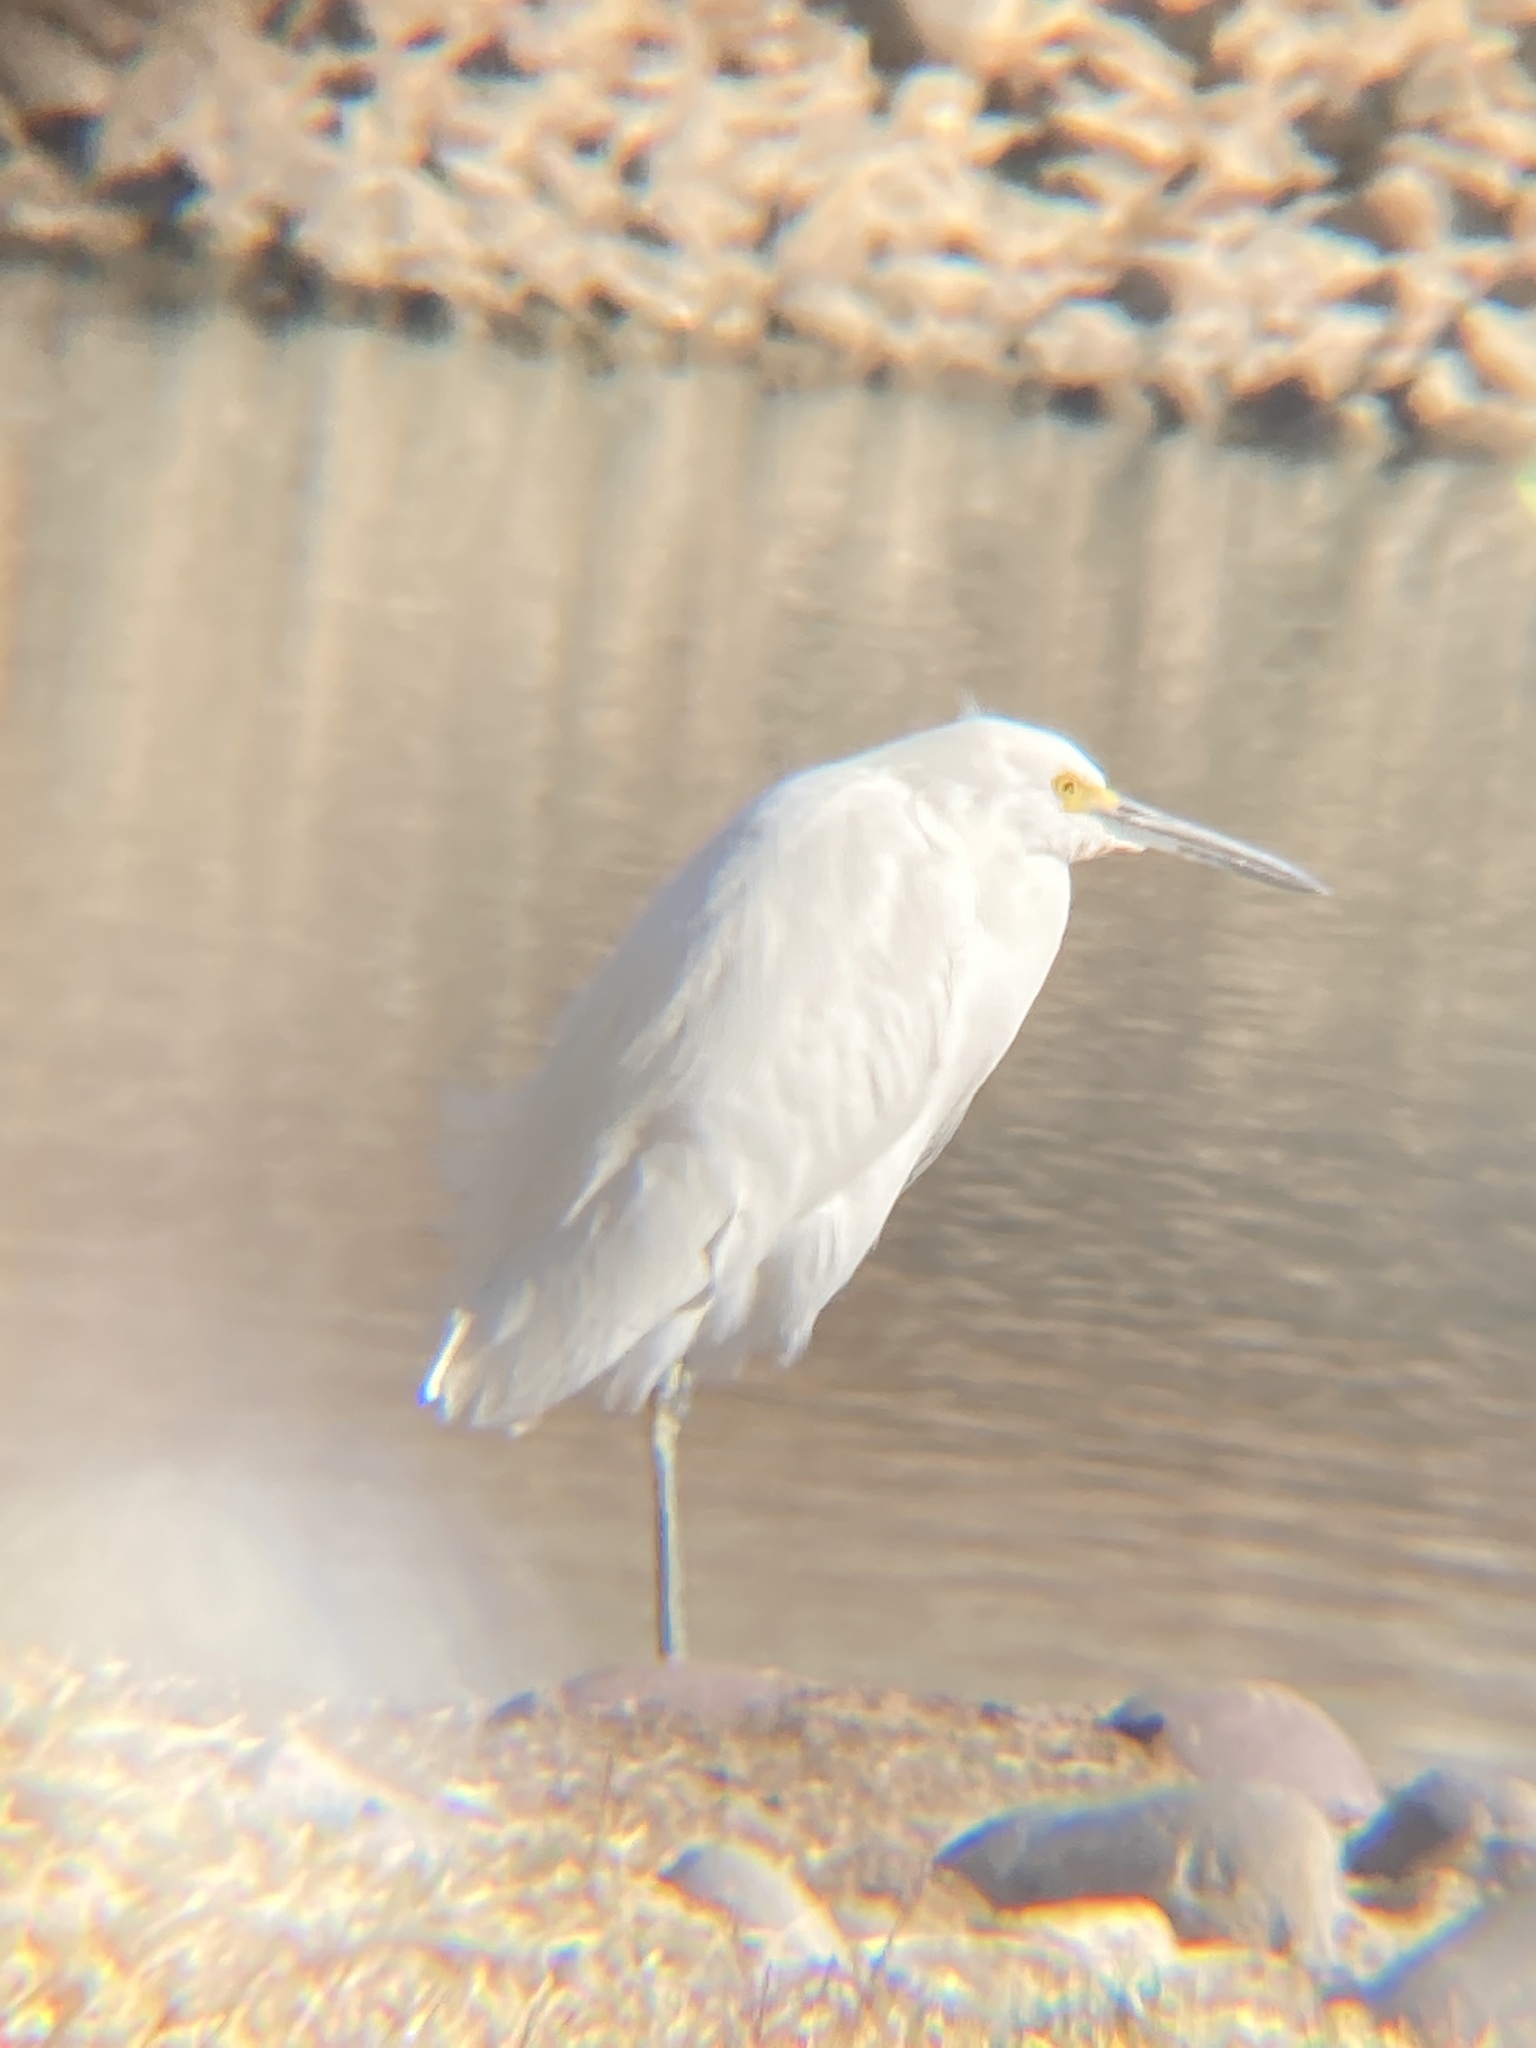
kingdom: Animalia
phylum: Chordata
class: Aves
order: Pelecaniformes
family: Ardeidae
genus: Egretta
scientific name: Egretta thula
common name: Snowy egret
